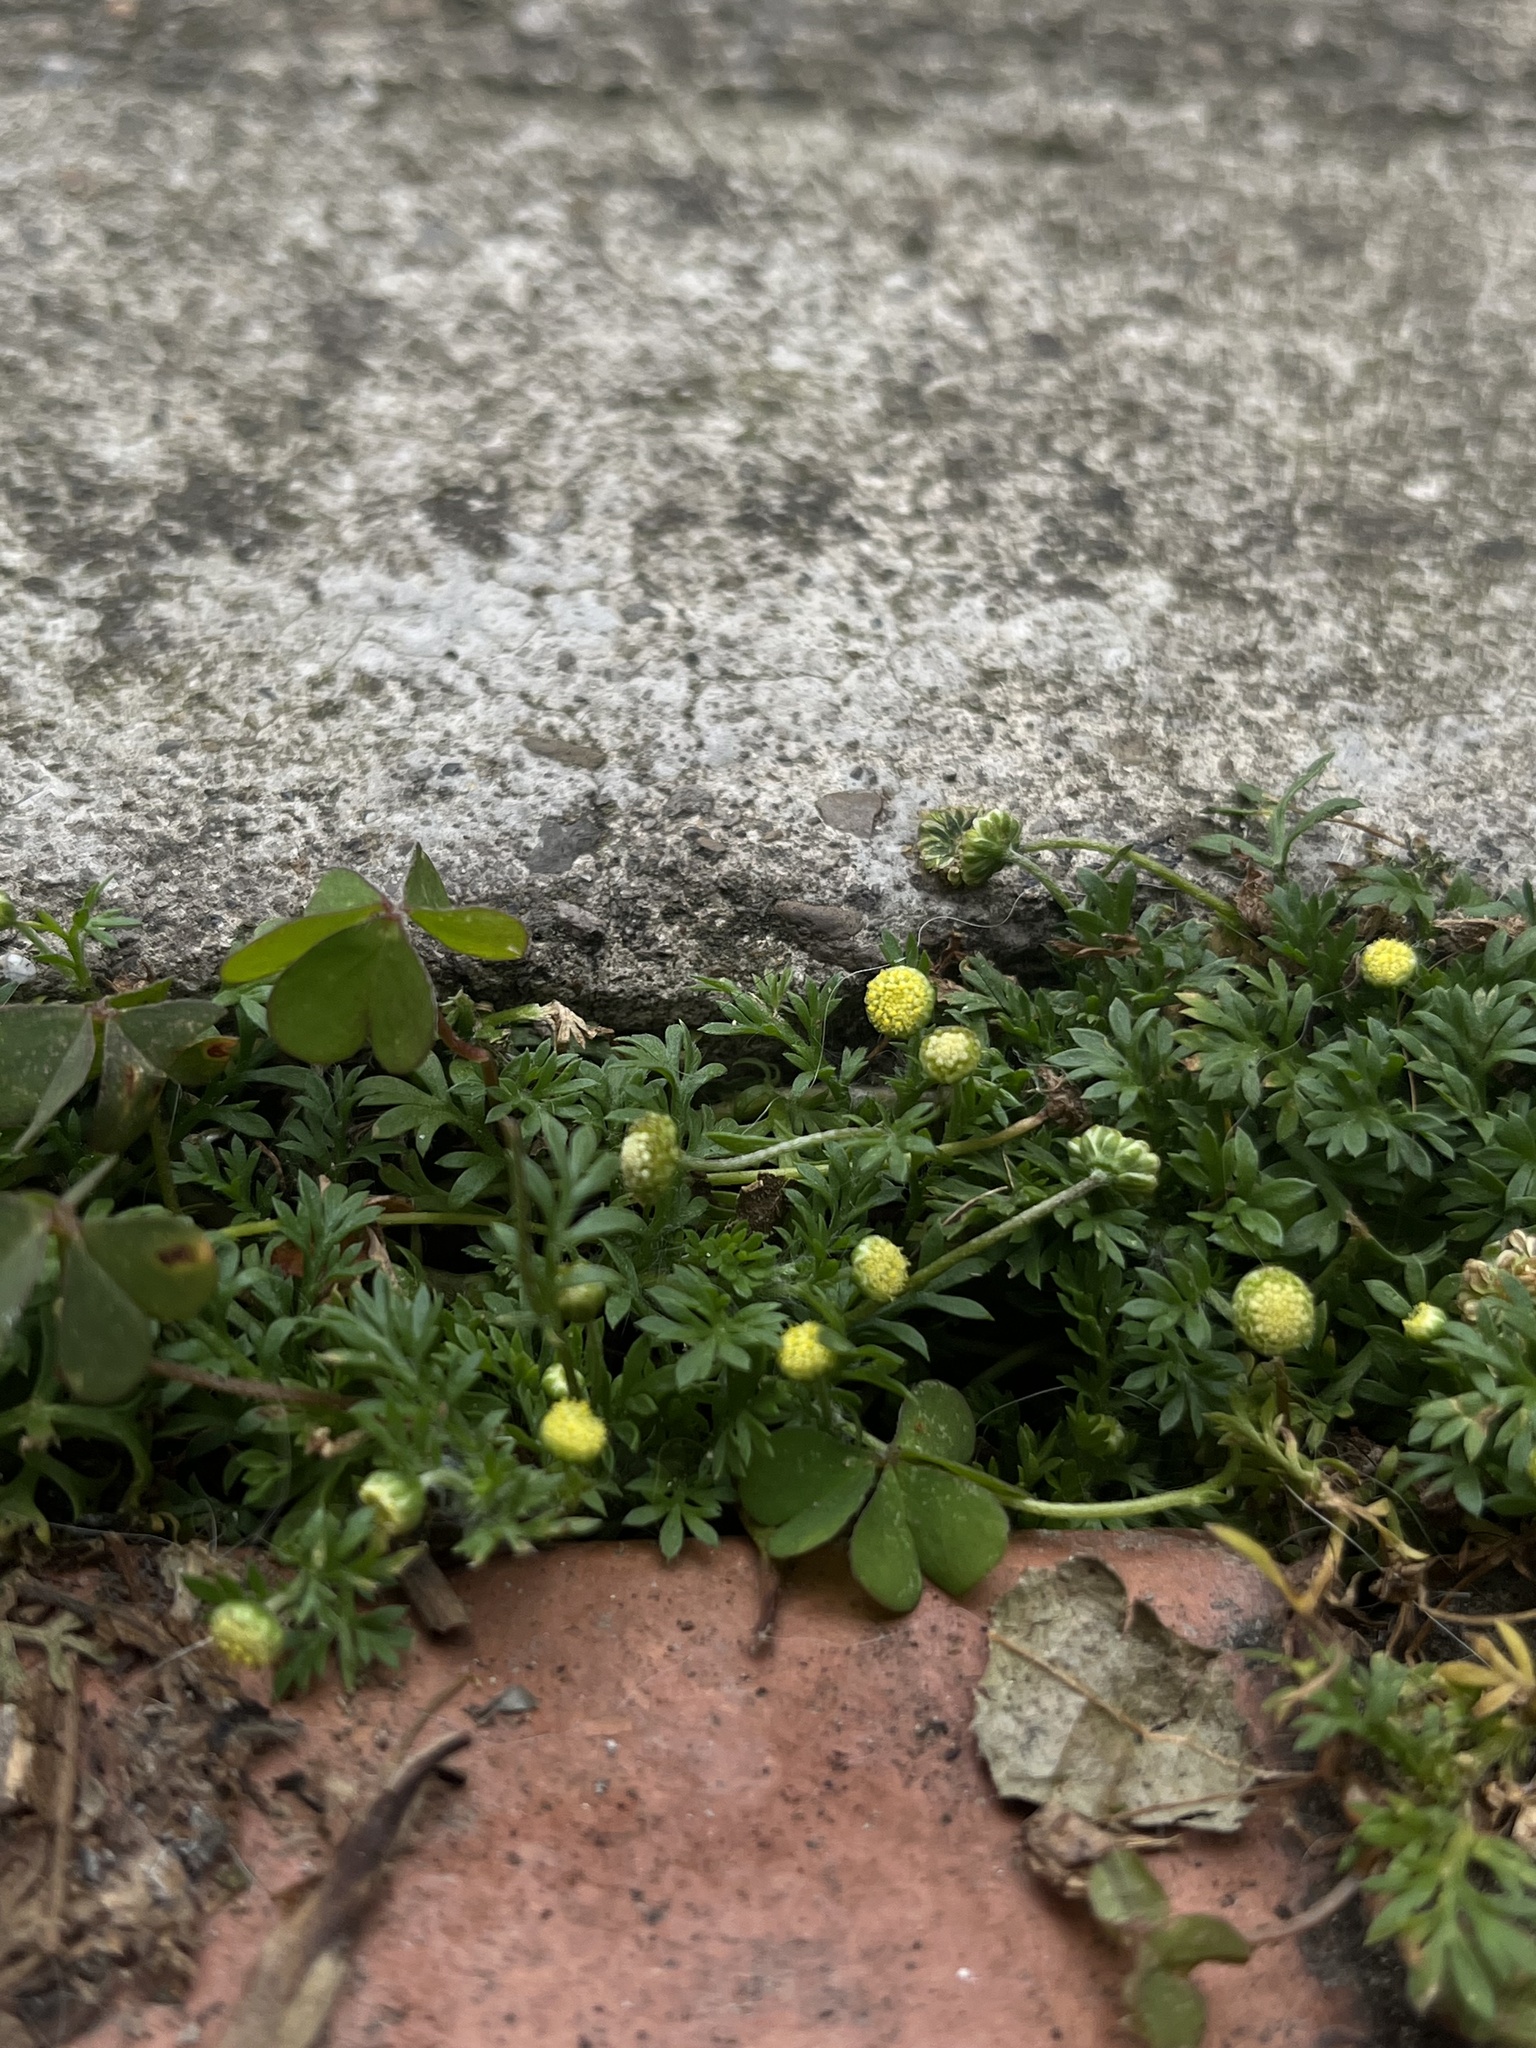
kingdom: Plantae
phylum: Tracheophyta
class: Magnoliopsida
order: Asterales
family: Asteraceae
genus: Cotula
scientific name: Cotula australis
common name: Australian waterbuttons
